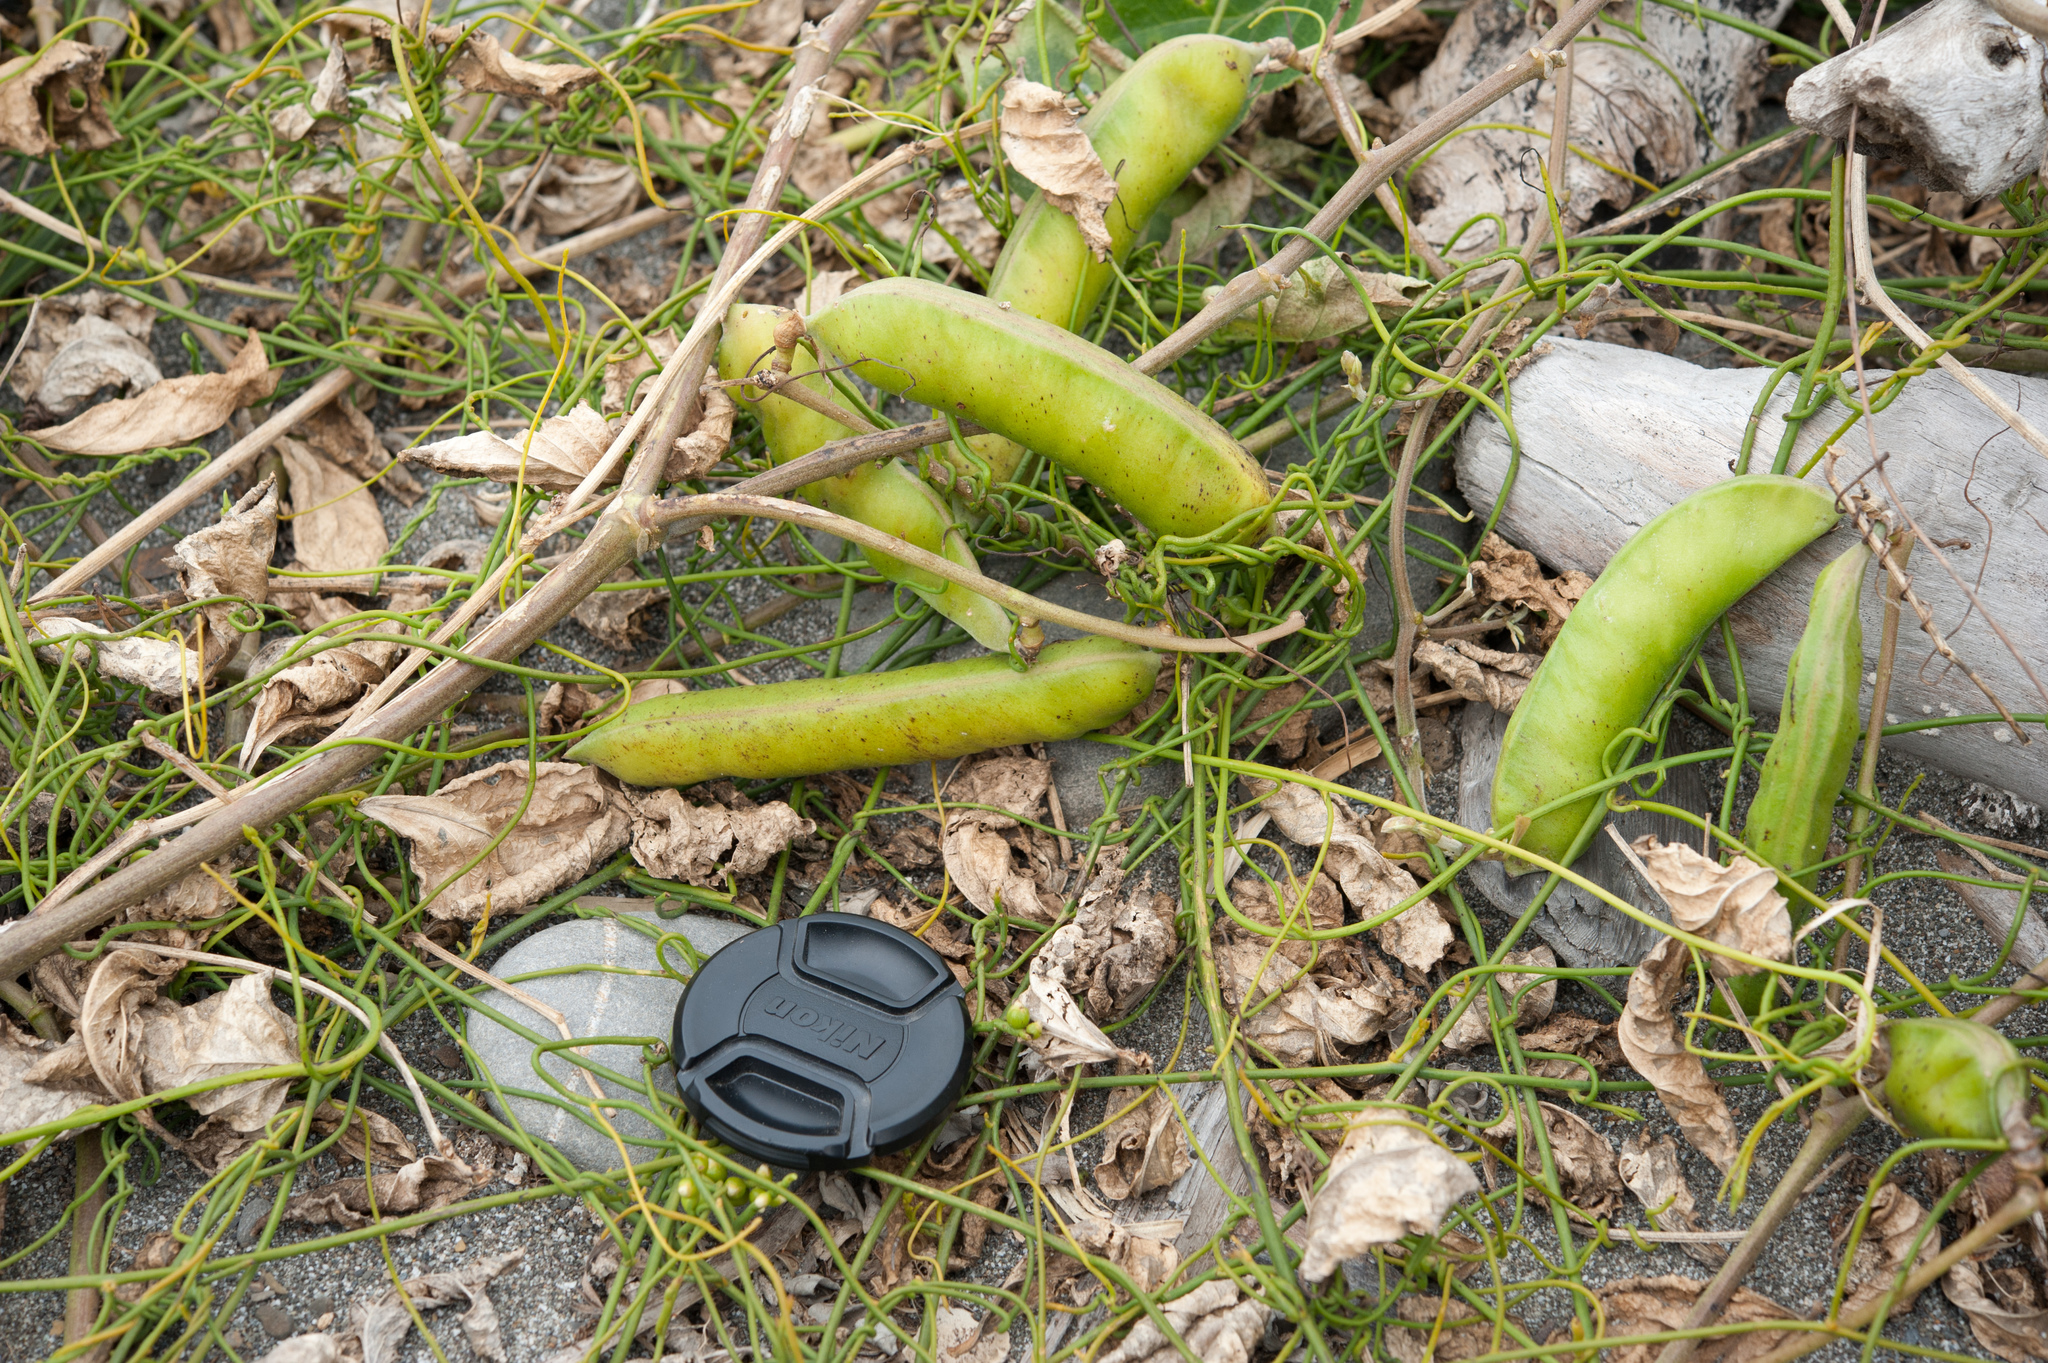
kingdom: Plantae
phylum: Tracheophyta
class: Magnoliopsida
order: Fabales
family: Fabaceae
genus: Canavalia
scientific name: Canavalia rosea
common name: Beach-bean
